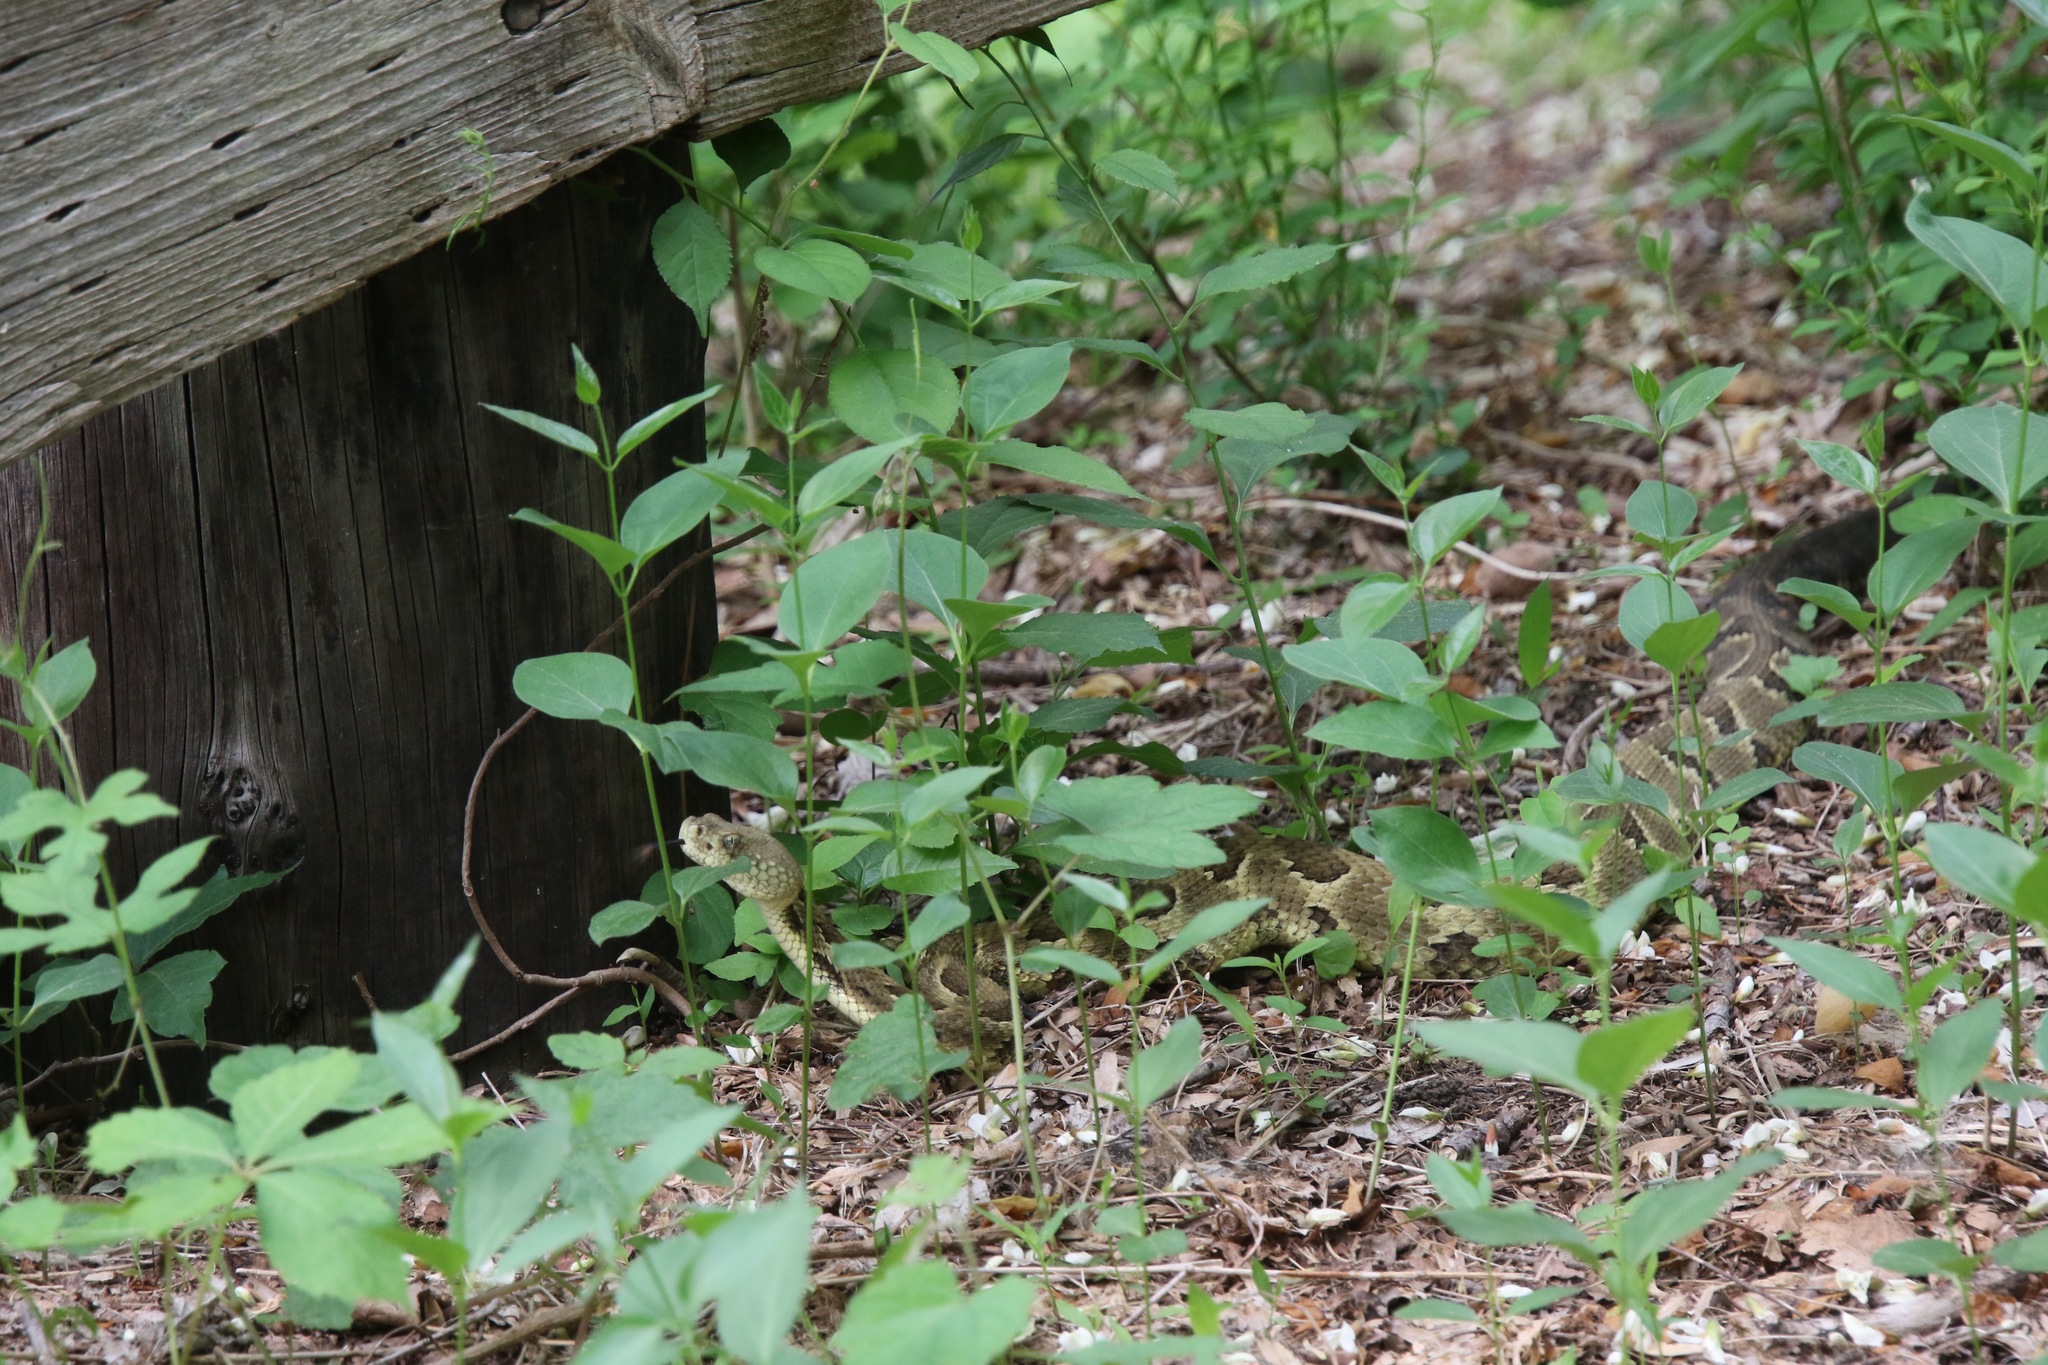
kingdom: Animalia
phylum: Chordata
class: Squamata
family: Viperidae
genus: Crotalus
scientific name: Crotalus horridus
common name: Timber rattlesnake
